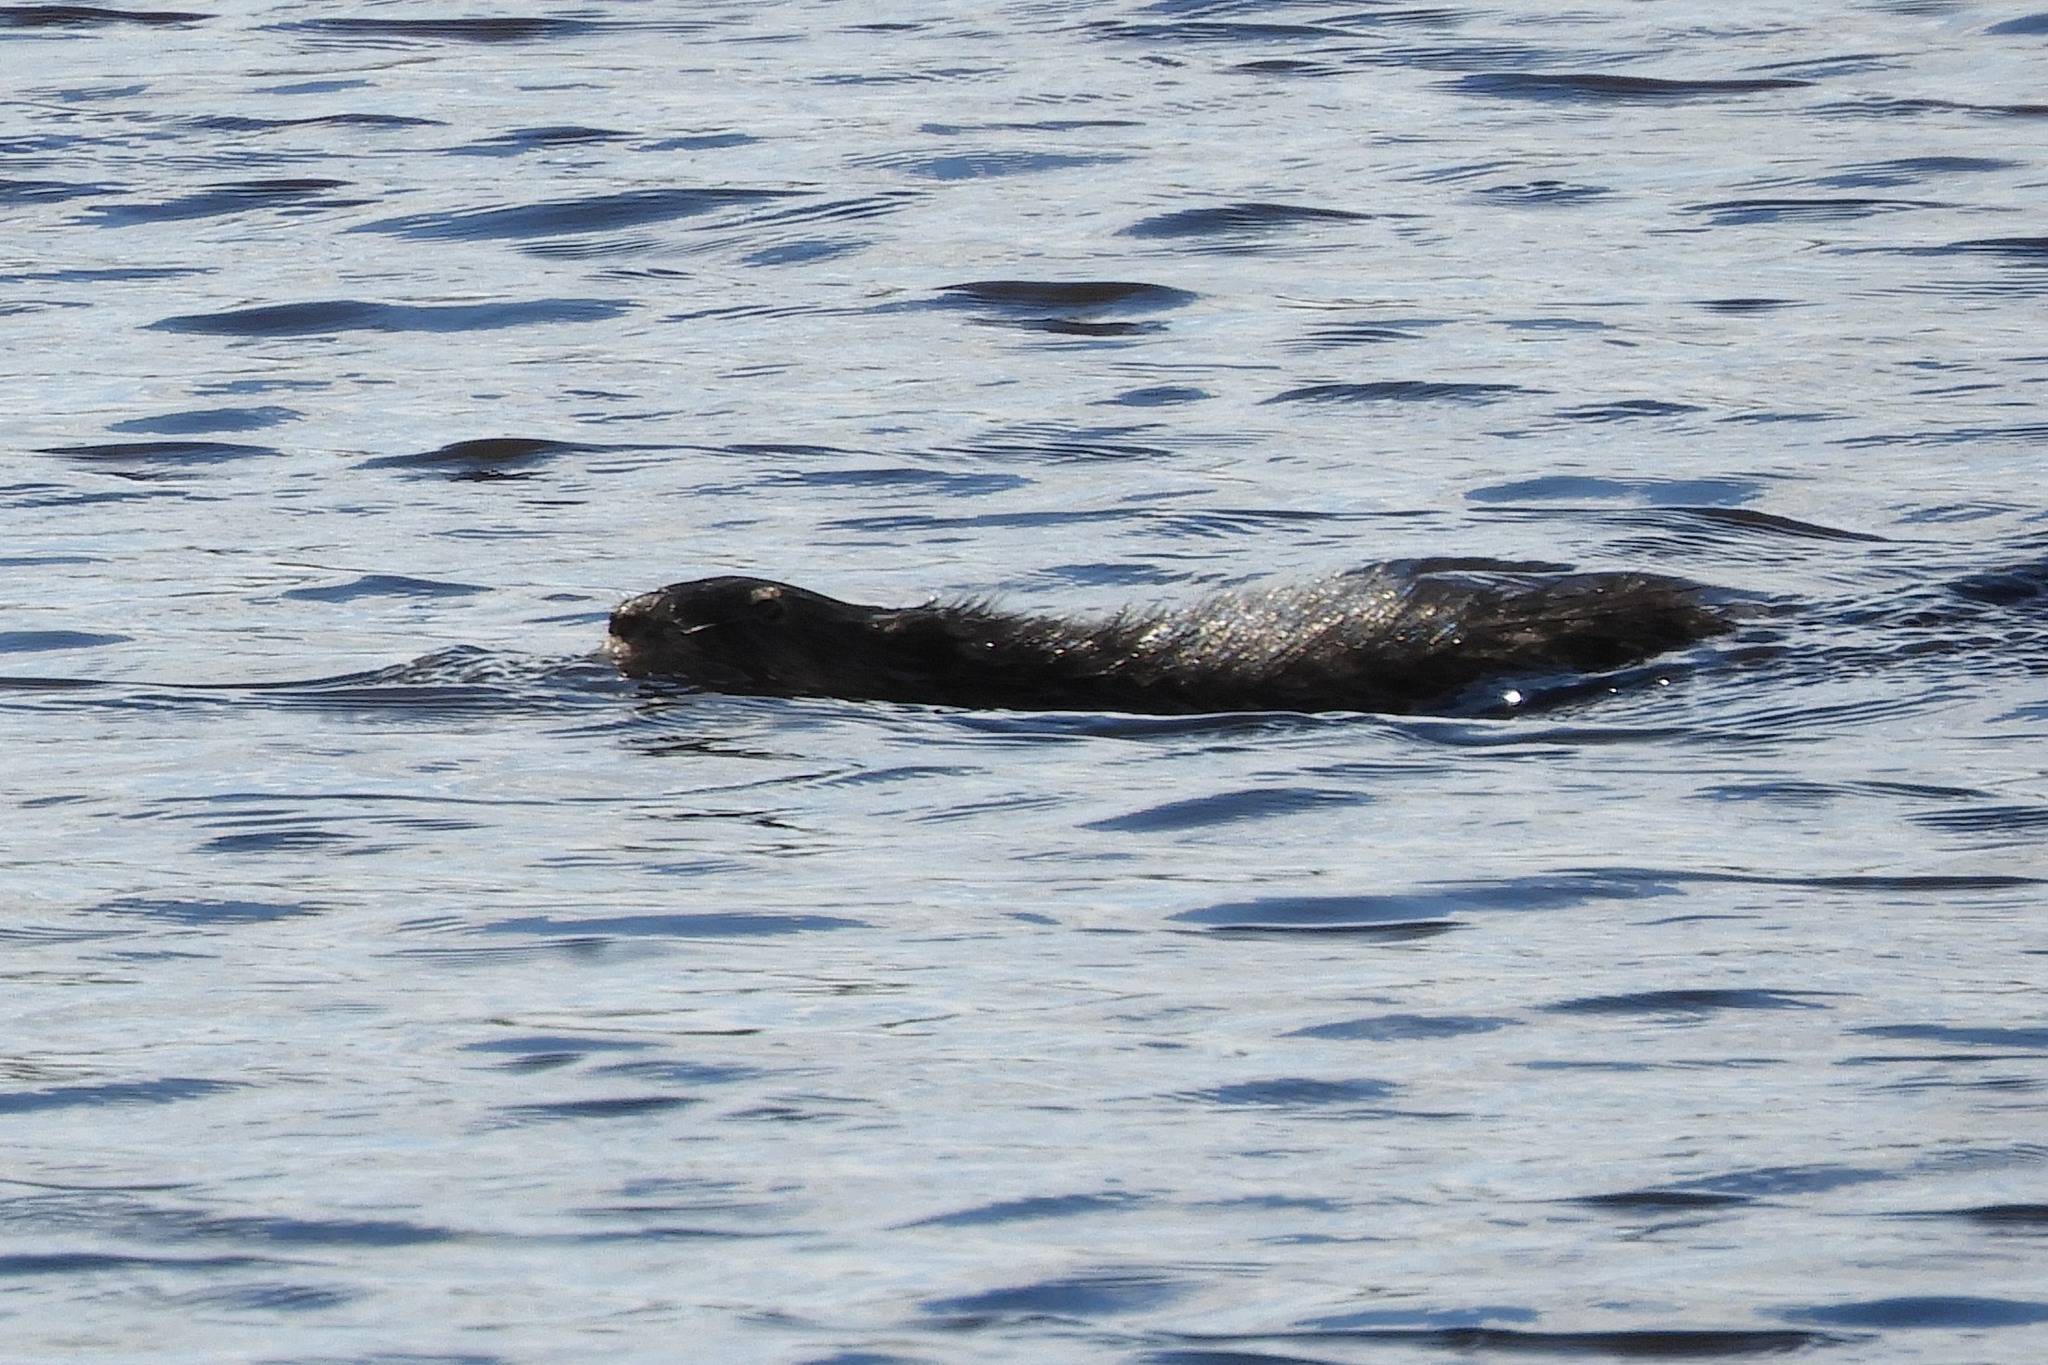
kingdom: Animalia
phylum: Chordata
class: Mammalia
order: Carnivora
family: Mustelidae
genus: Lontra
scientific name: Lontra canadensis
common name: North american river otter
